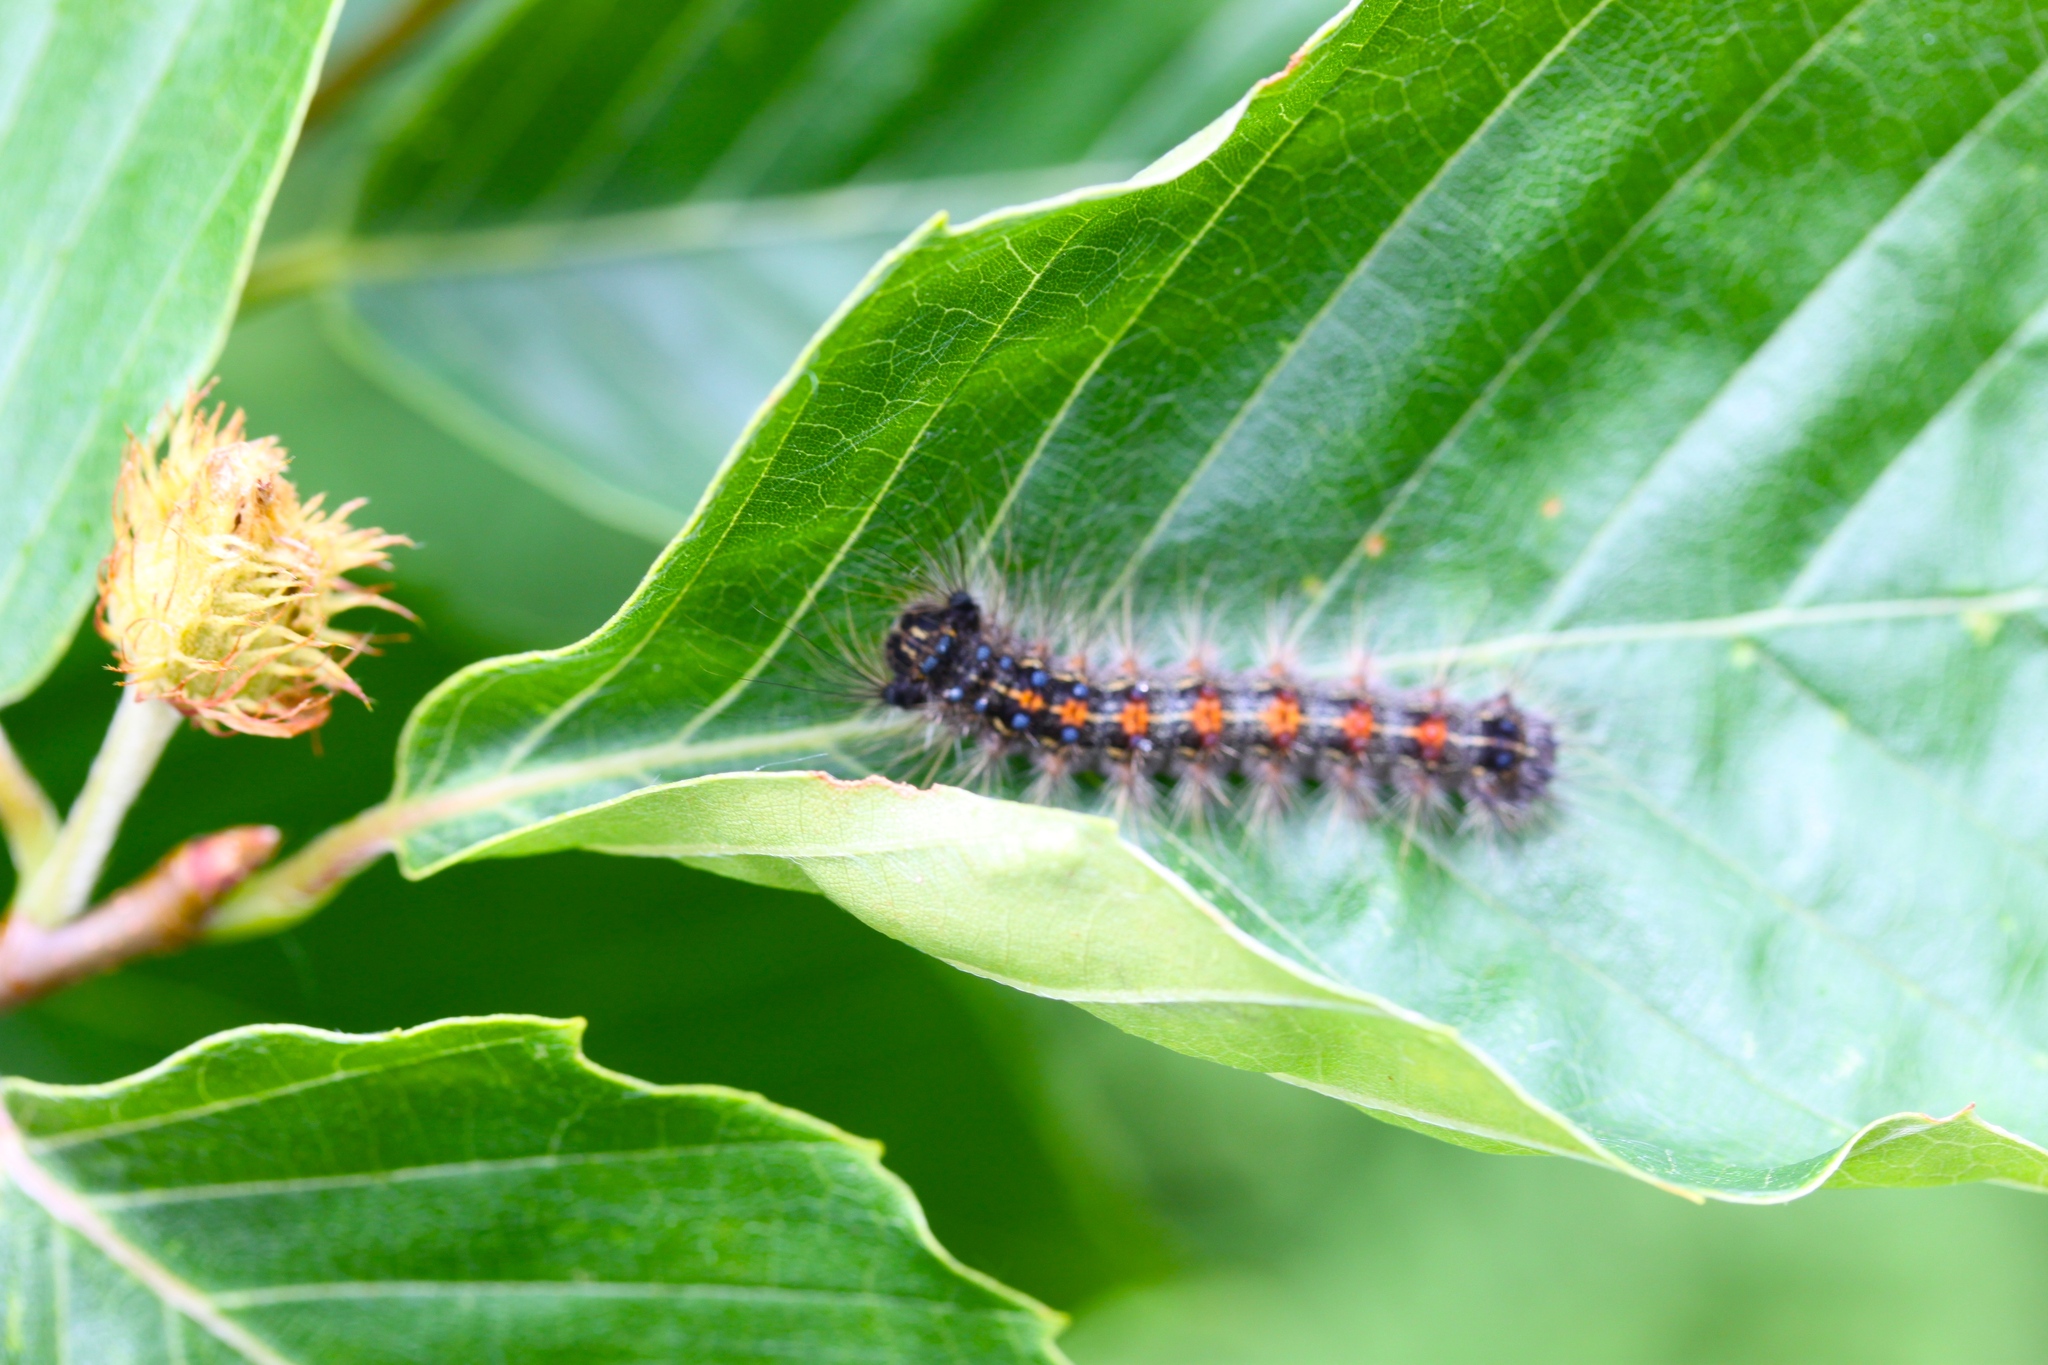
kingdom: Animalia
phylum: Arthropoda
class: Insecta
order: Lepidoptera
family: Erebidae
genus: Lymantria
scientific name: Lymantria dispar
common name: Gypsy moth
